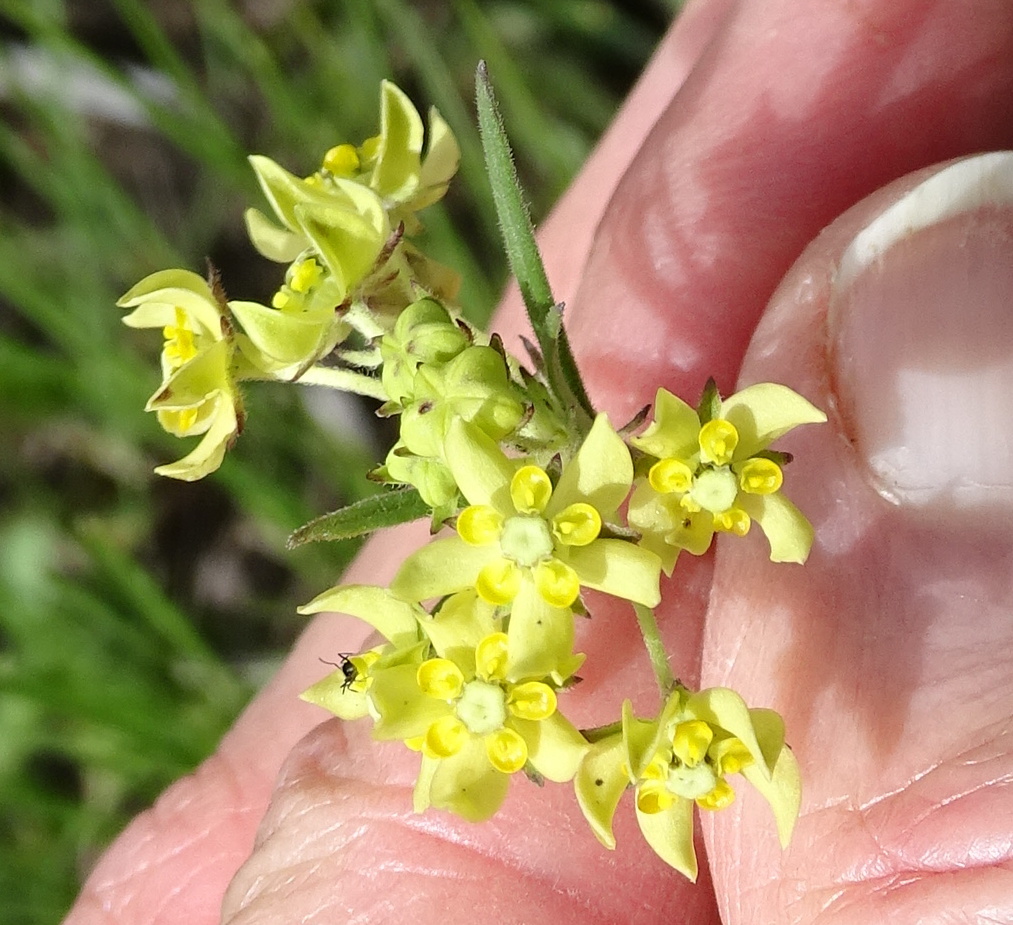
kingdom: Plantae
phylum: Tracheophyta
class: Magnoliopsida
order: Gentianales
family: Apocynaceae
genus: Aspidonepsis
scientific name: Aspidonepsis diploglossa
